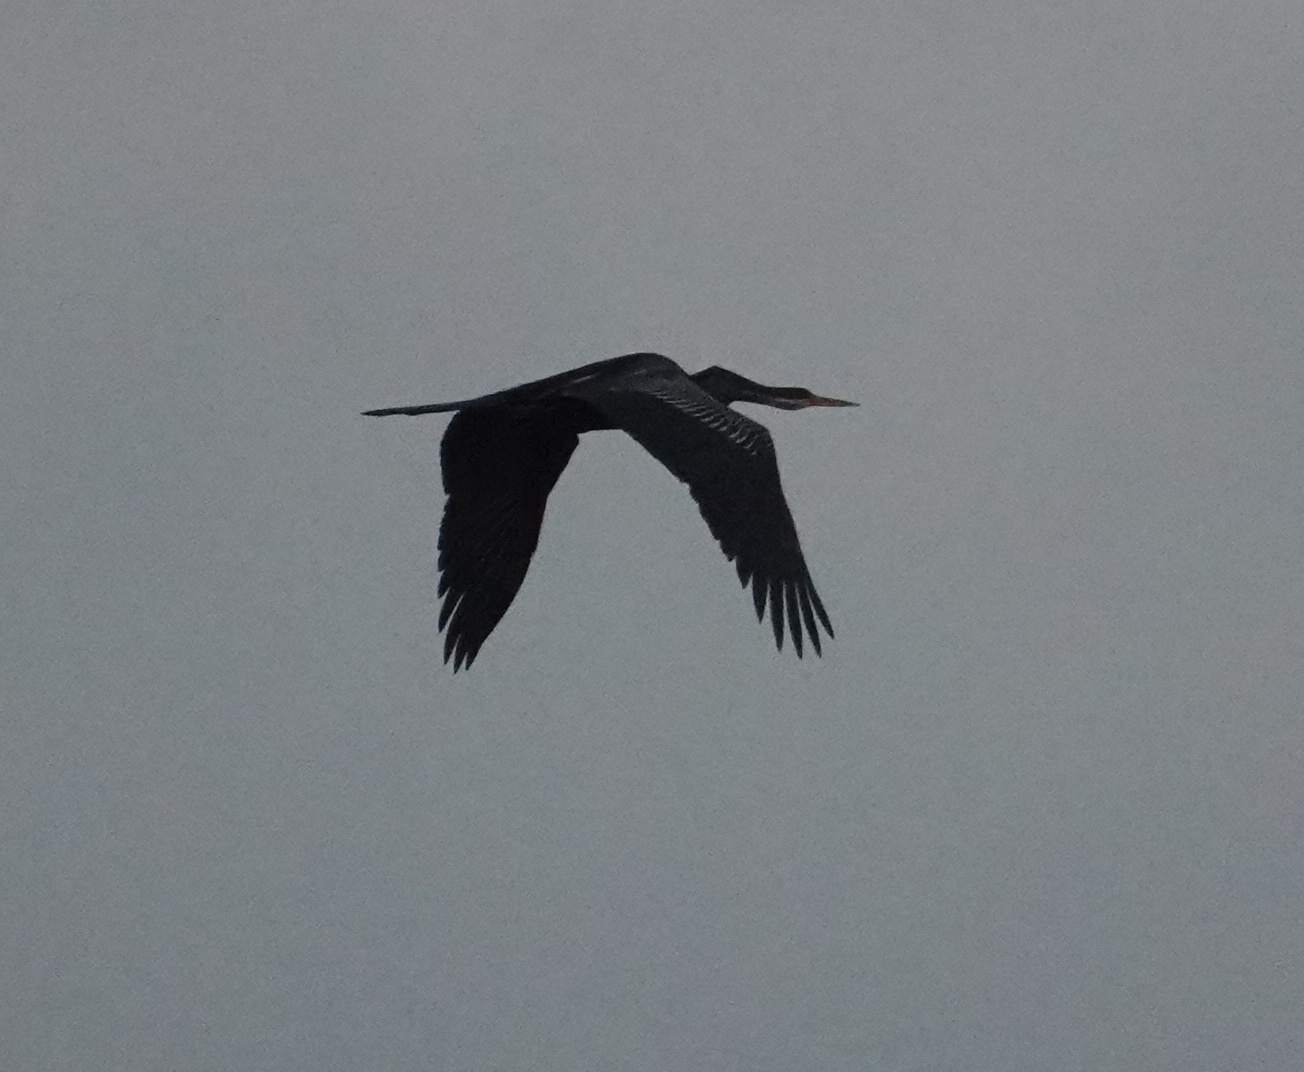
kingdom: Animalia
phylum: Chordata
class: Aves
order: Suliformes
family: Anhingidae
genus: Anhinga
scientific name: Anhinga melanogaster
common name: Oriental darter
